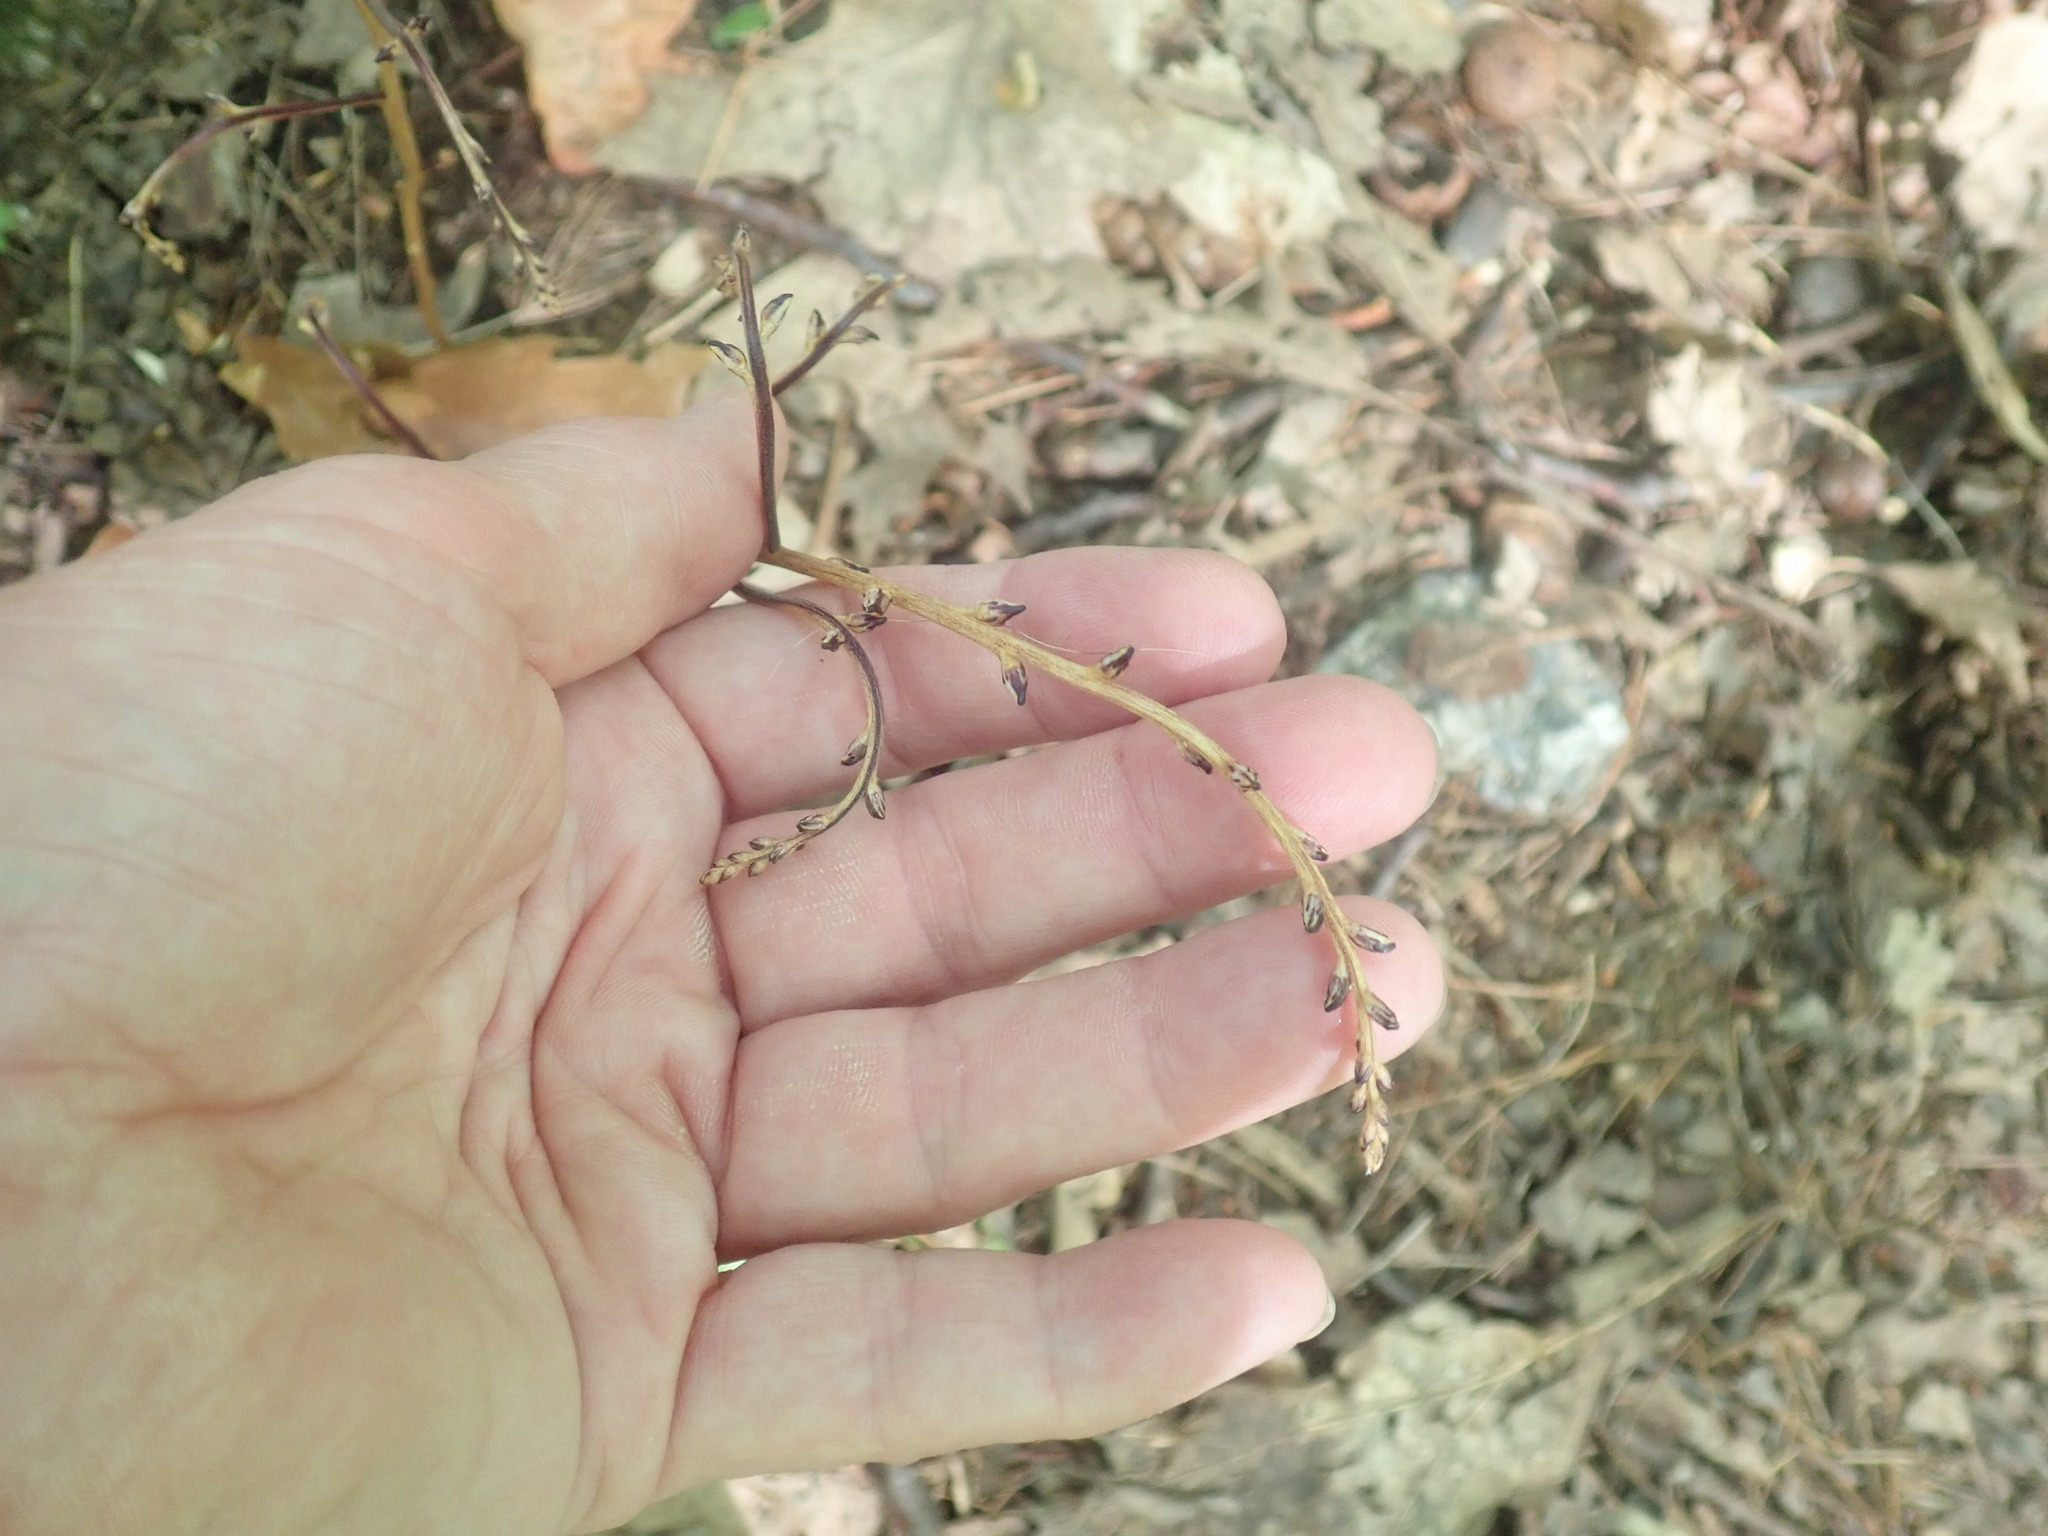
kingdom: Plantae
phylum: Tracheophyta
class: Magnoliopsida
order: Lamiales
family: Orobanchaceae
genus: Epifagus
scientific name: Epifagus virginiana
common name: Beechdrops
